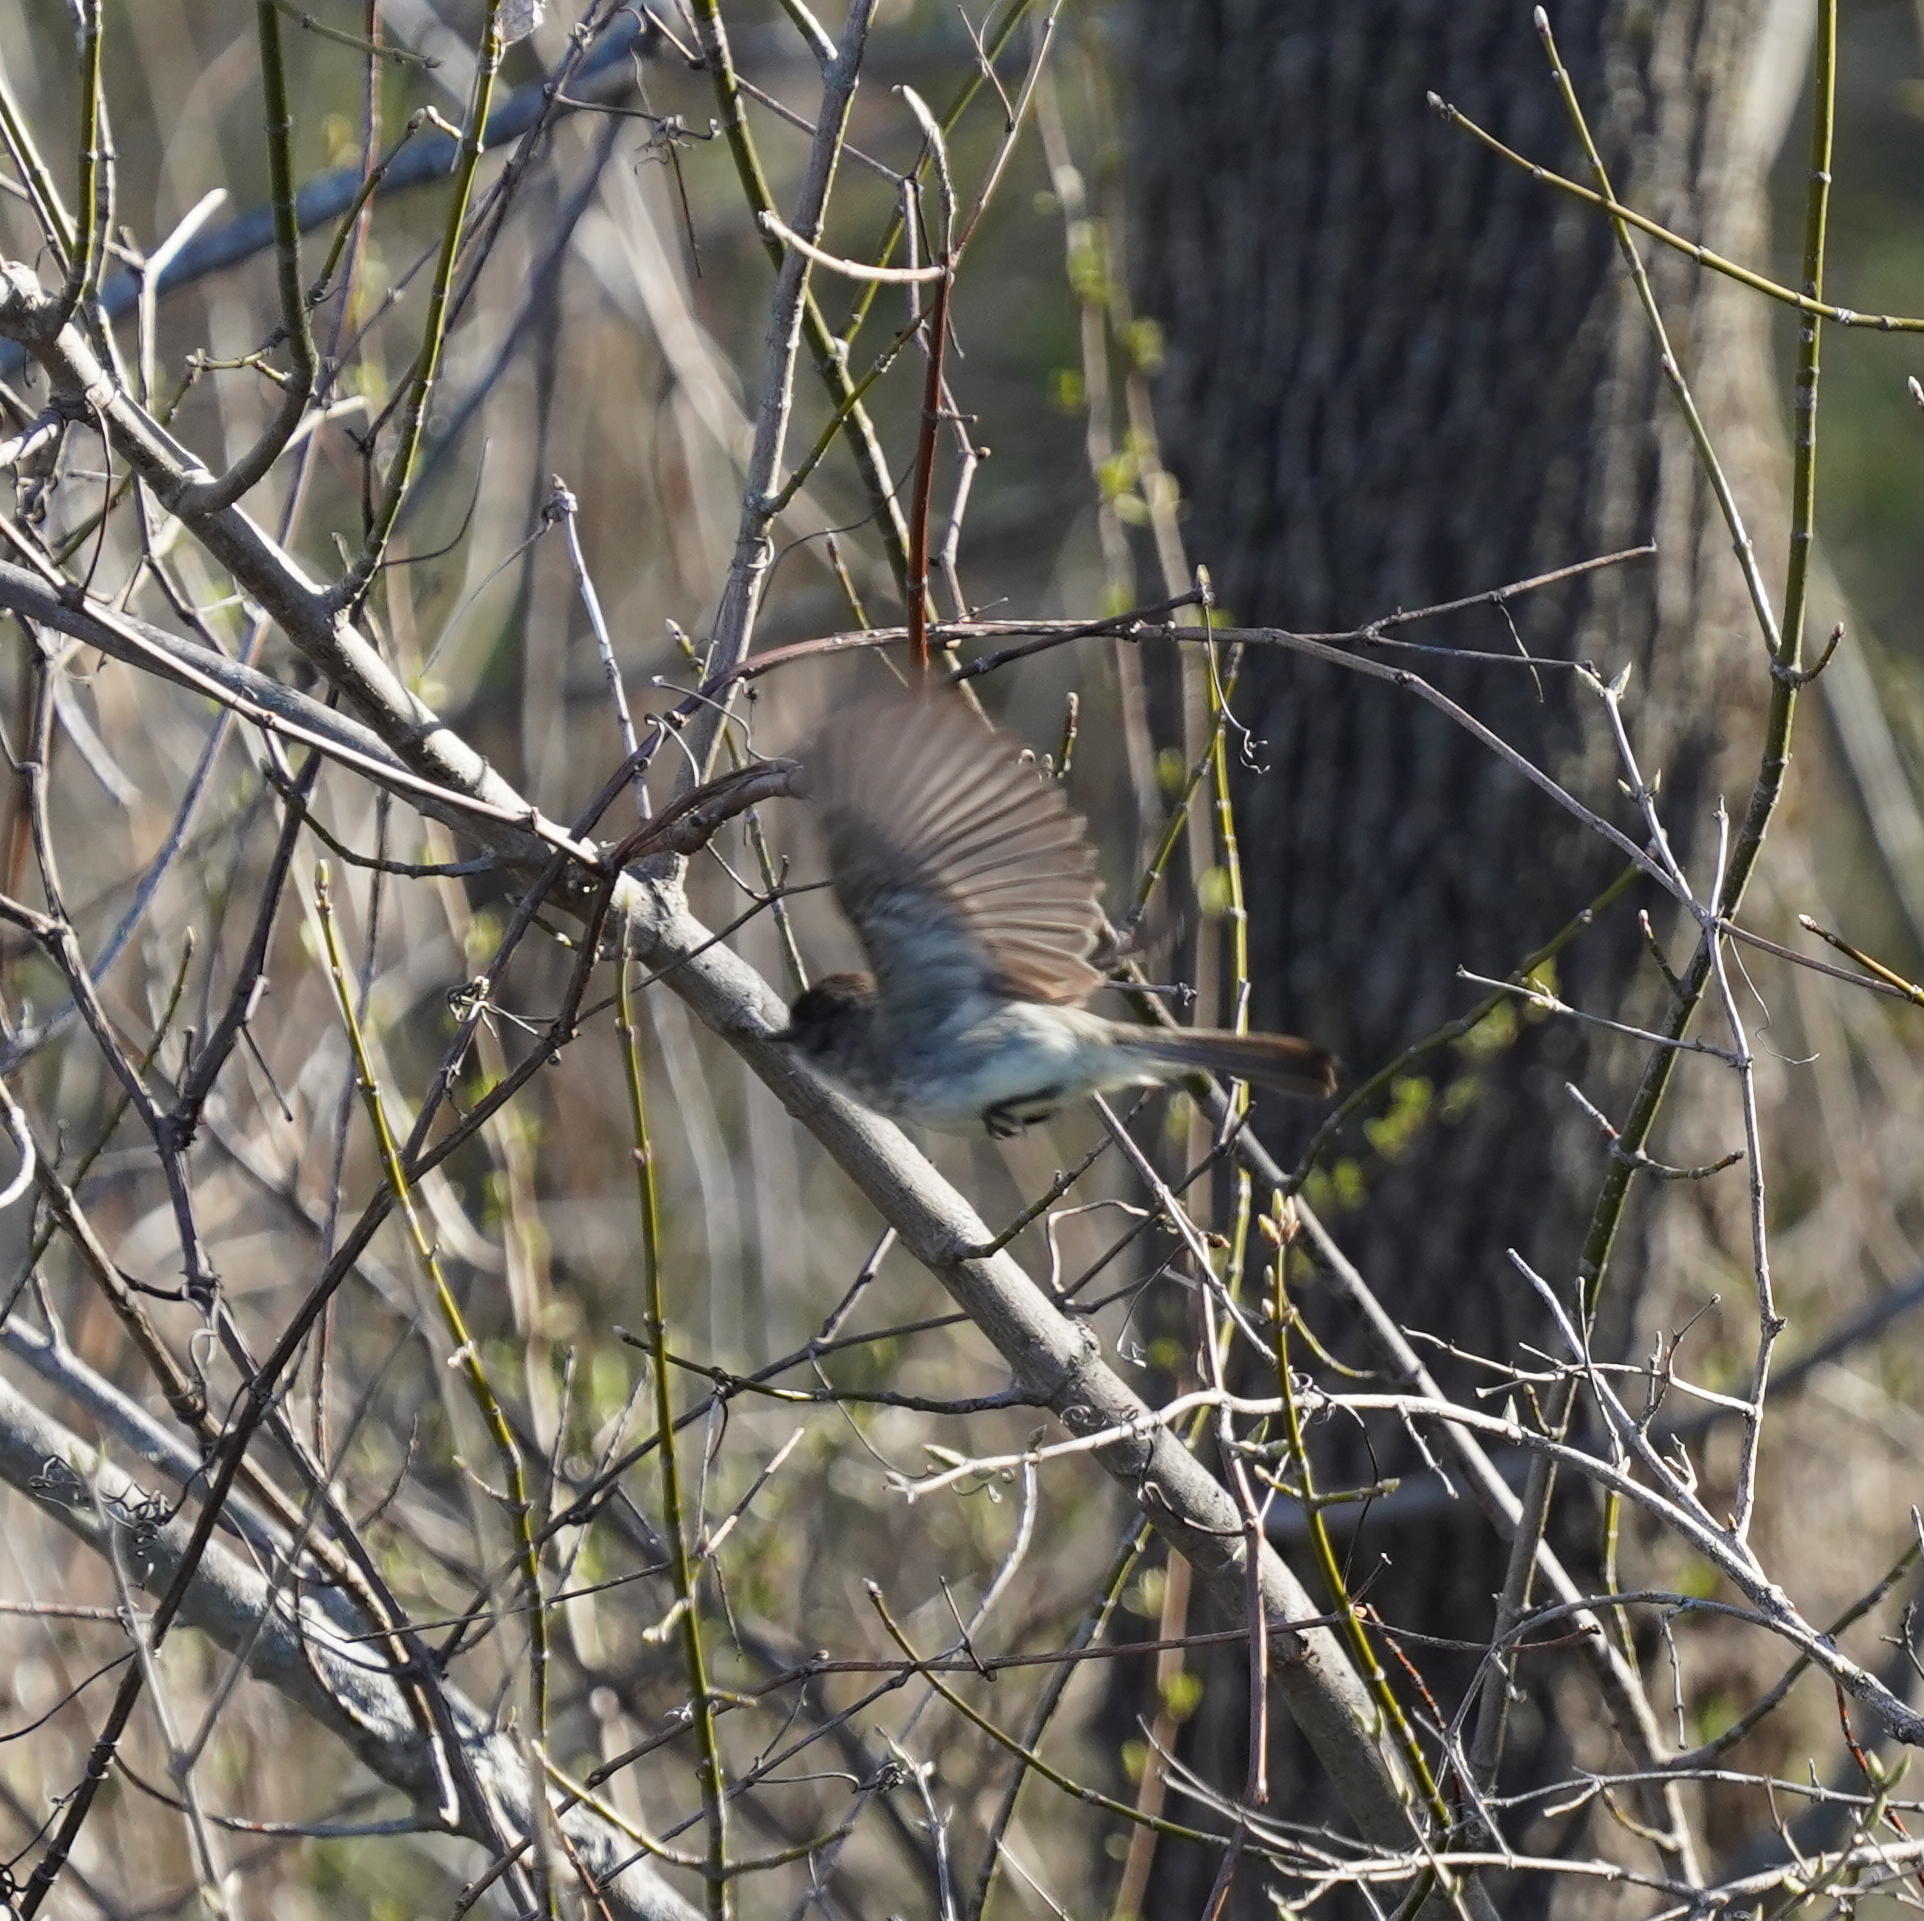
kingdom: Animalia
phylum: Chordata
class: Aves
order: Passeriformes
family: Tyrannidae
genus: Sayornis
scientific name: Sayornis phoebe
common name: Eastern phoebe
